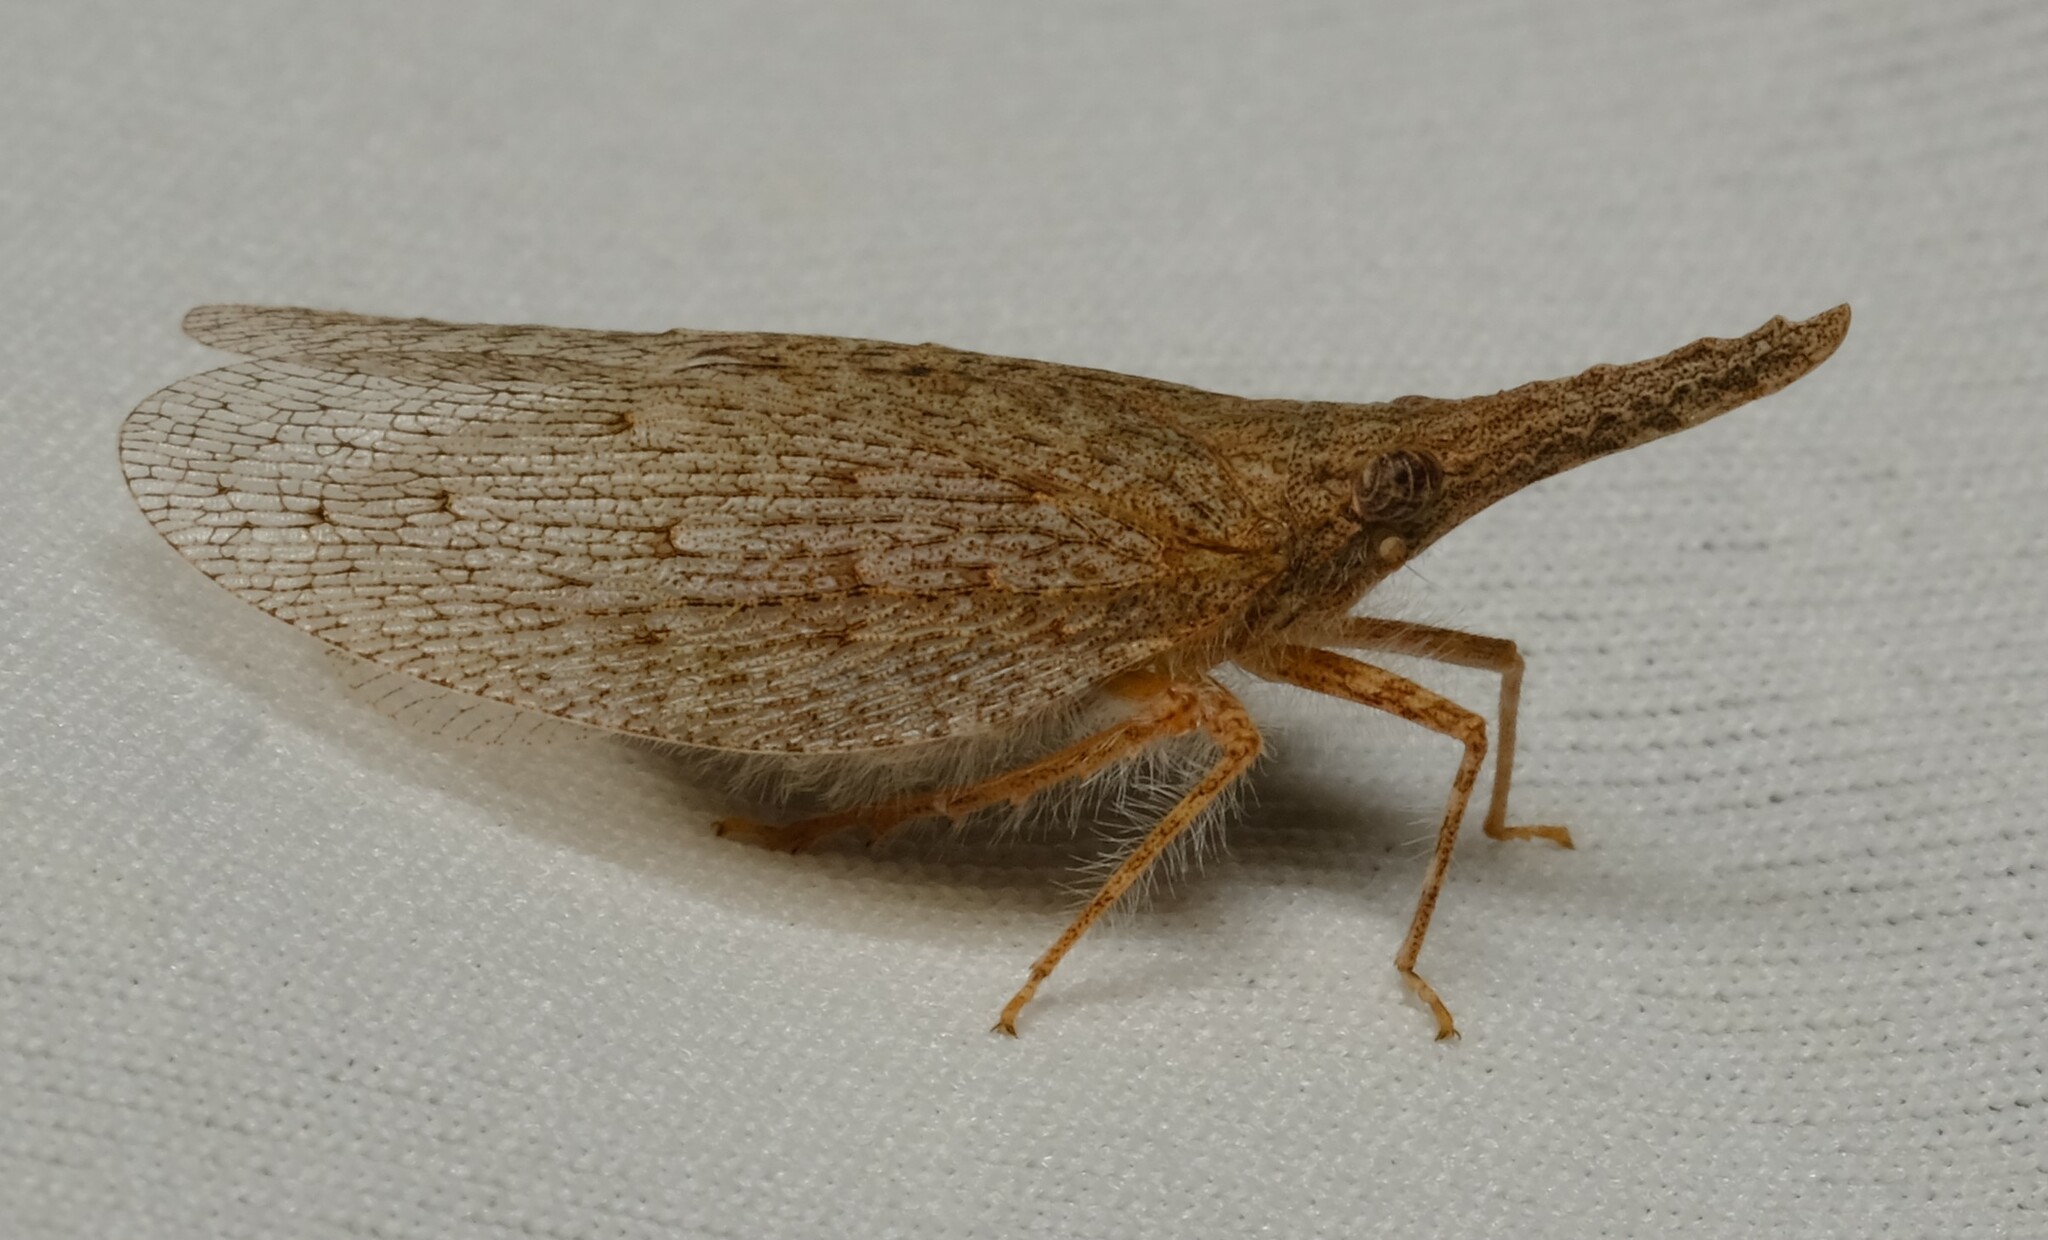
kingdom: Animalia
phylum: Arthropoda
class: Insecta
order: Hemiptera
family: Fulgoridae
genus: Rentinus
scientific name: Rentinus dilatatus
